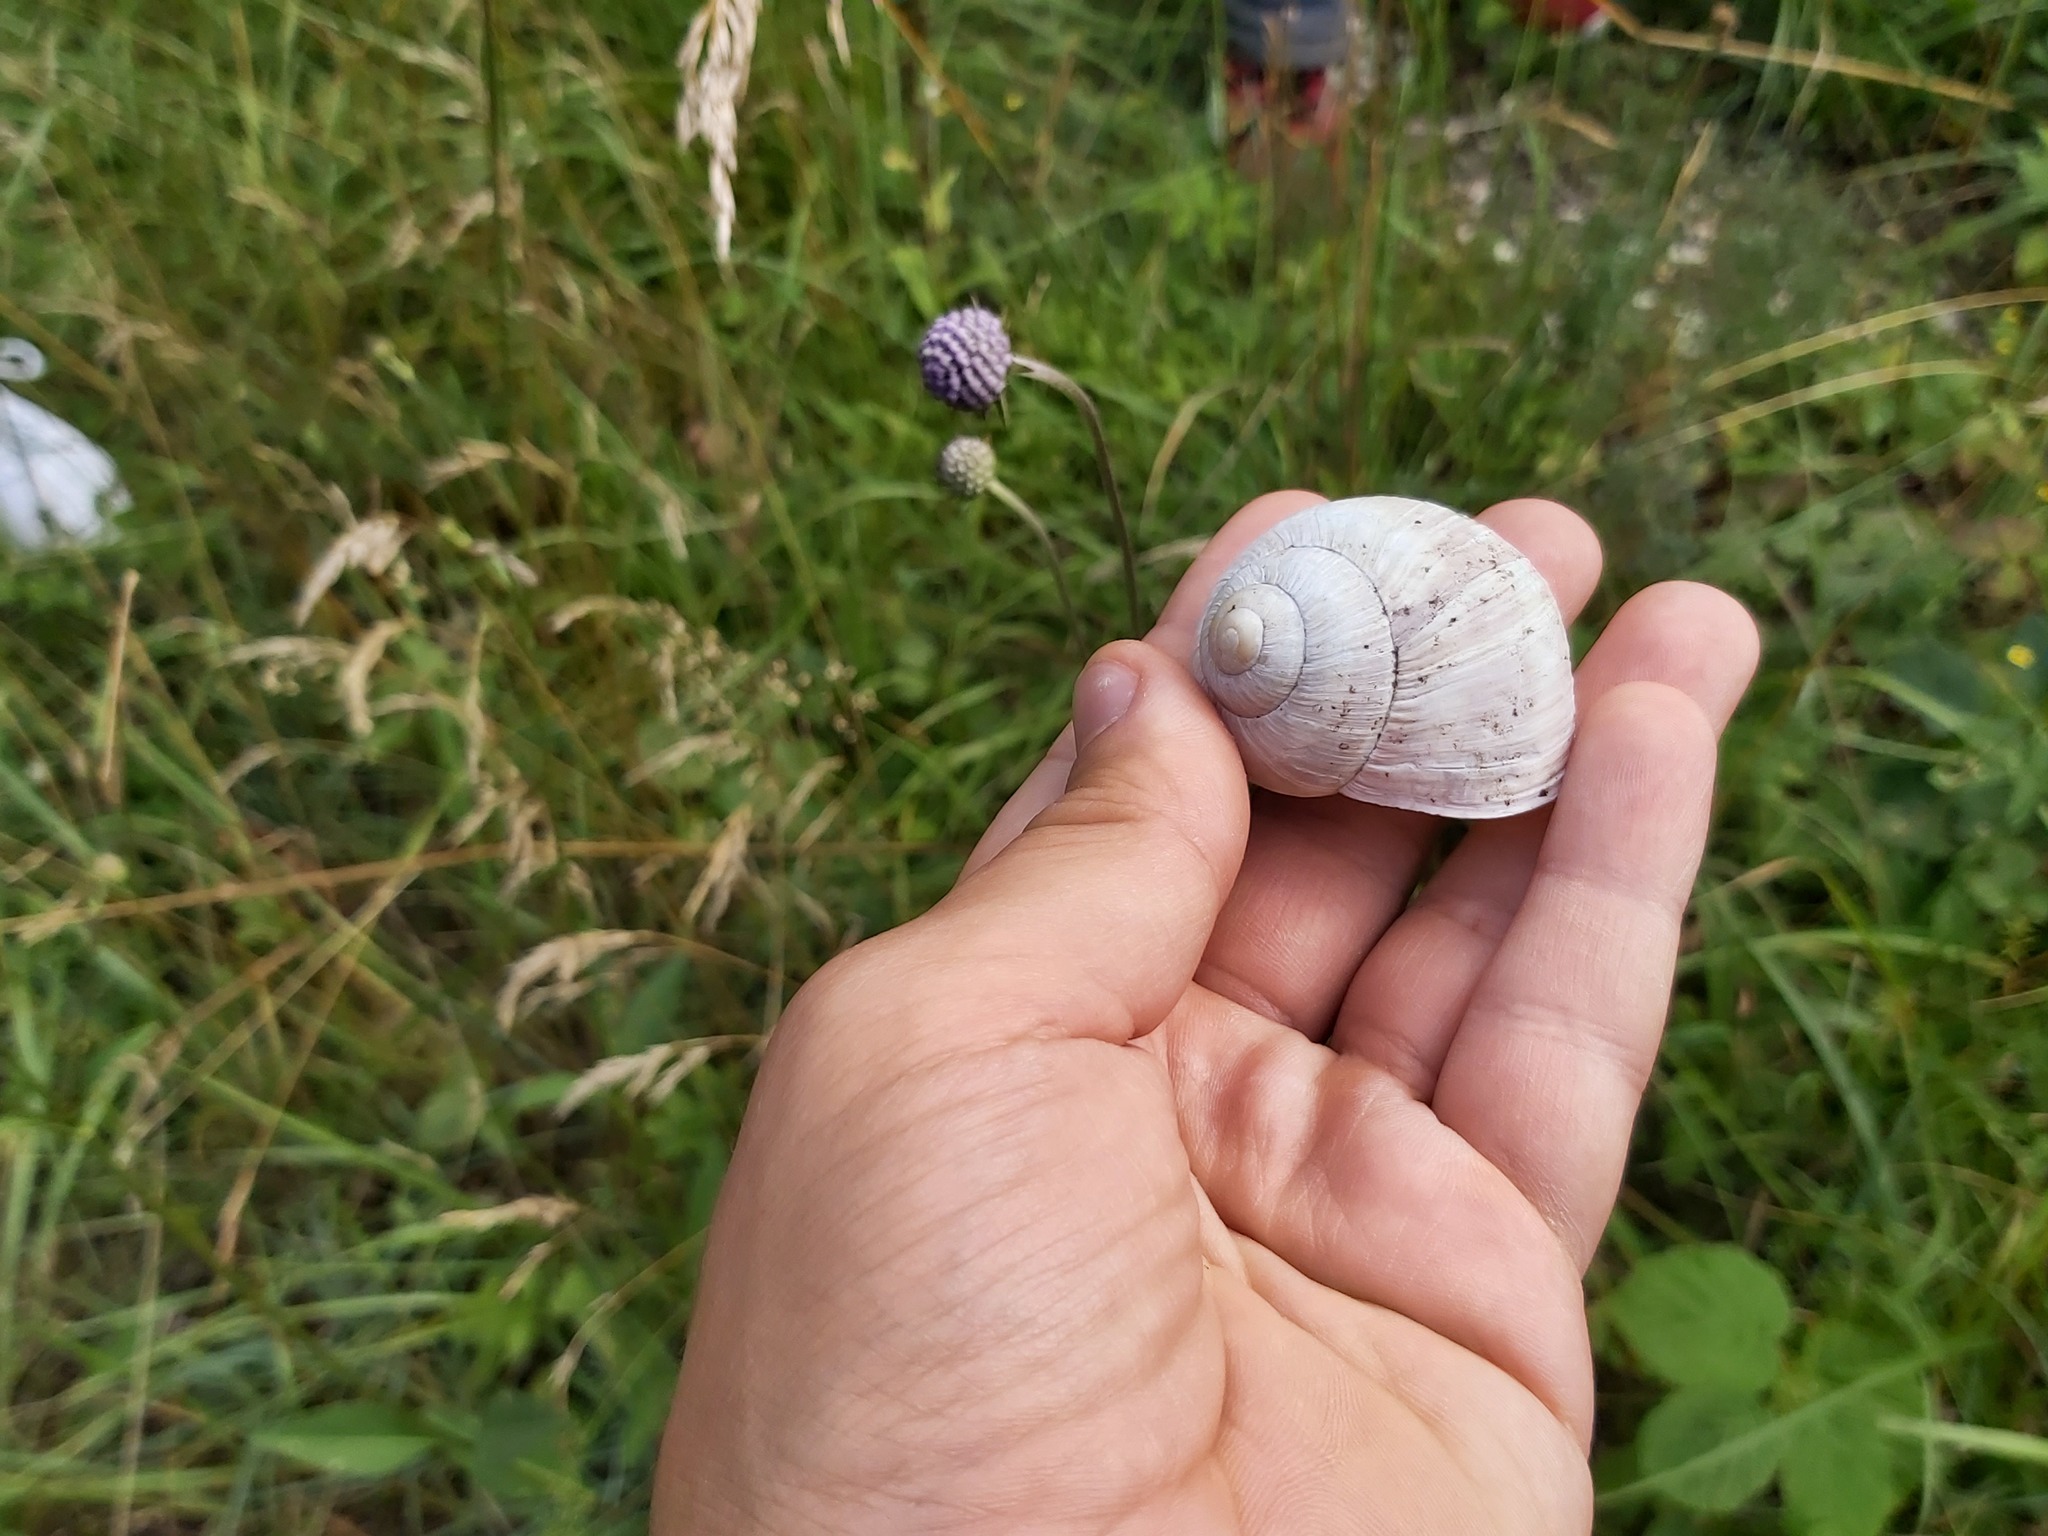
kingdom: Animalia
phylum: Mollusca
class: Gastropoda
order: Stylommatophora
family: Helicidae
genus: Helix
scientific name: Helix pomatia
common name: Roman snail
